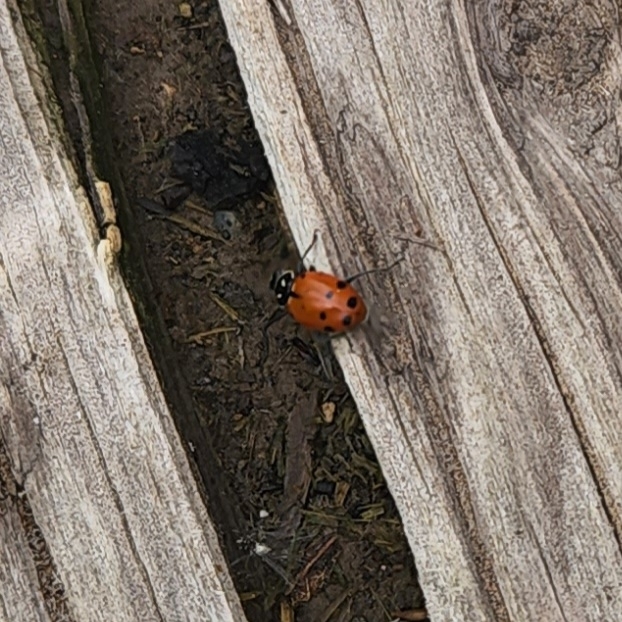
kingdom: Animalia
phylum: Arthropoda
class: Insecta
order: Coleoptera
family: Coccinellidae
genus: Hippodamia
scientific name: Hippodamia convergens
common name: Convergent lady beetle
